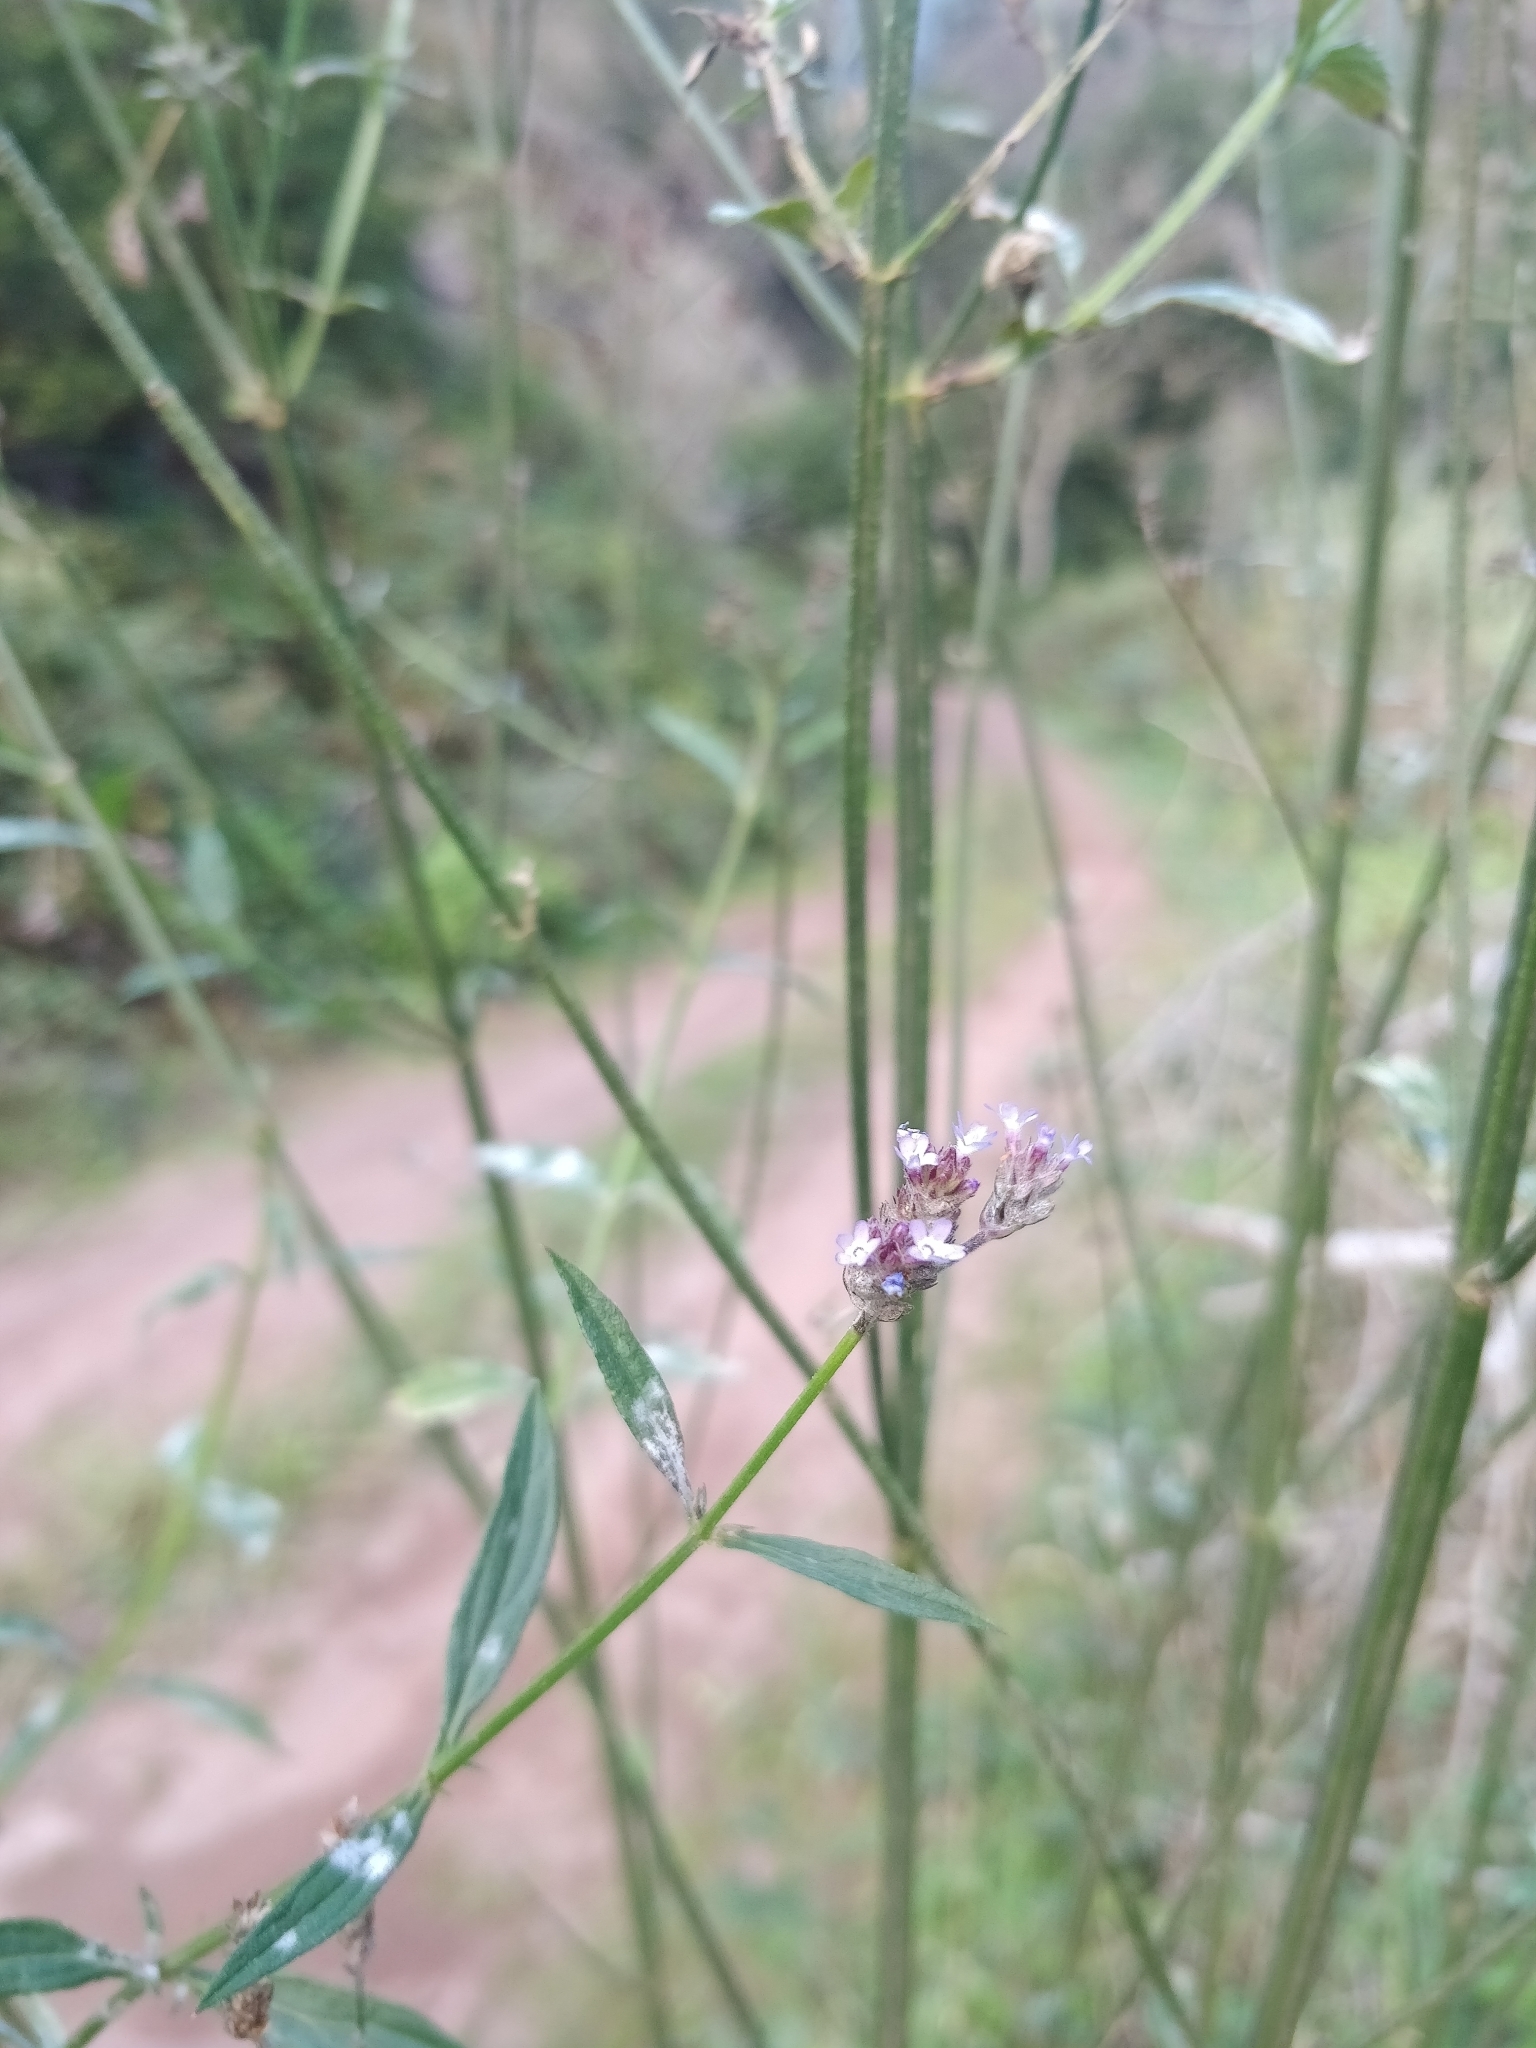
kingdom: Plantae
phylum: Tracheophyta
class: Magnoliopsida
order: Lamiales
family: Verbenaceae
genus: Verbena
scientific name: Verbena bonariensis
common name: Purpletop vervain
